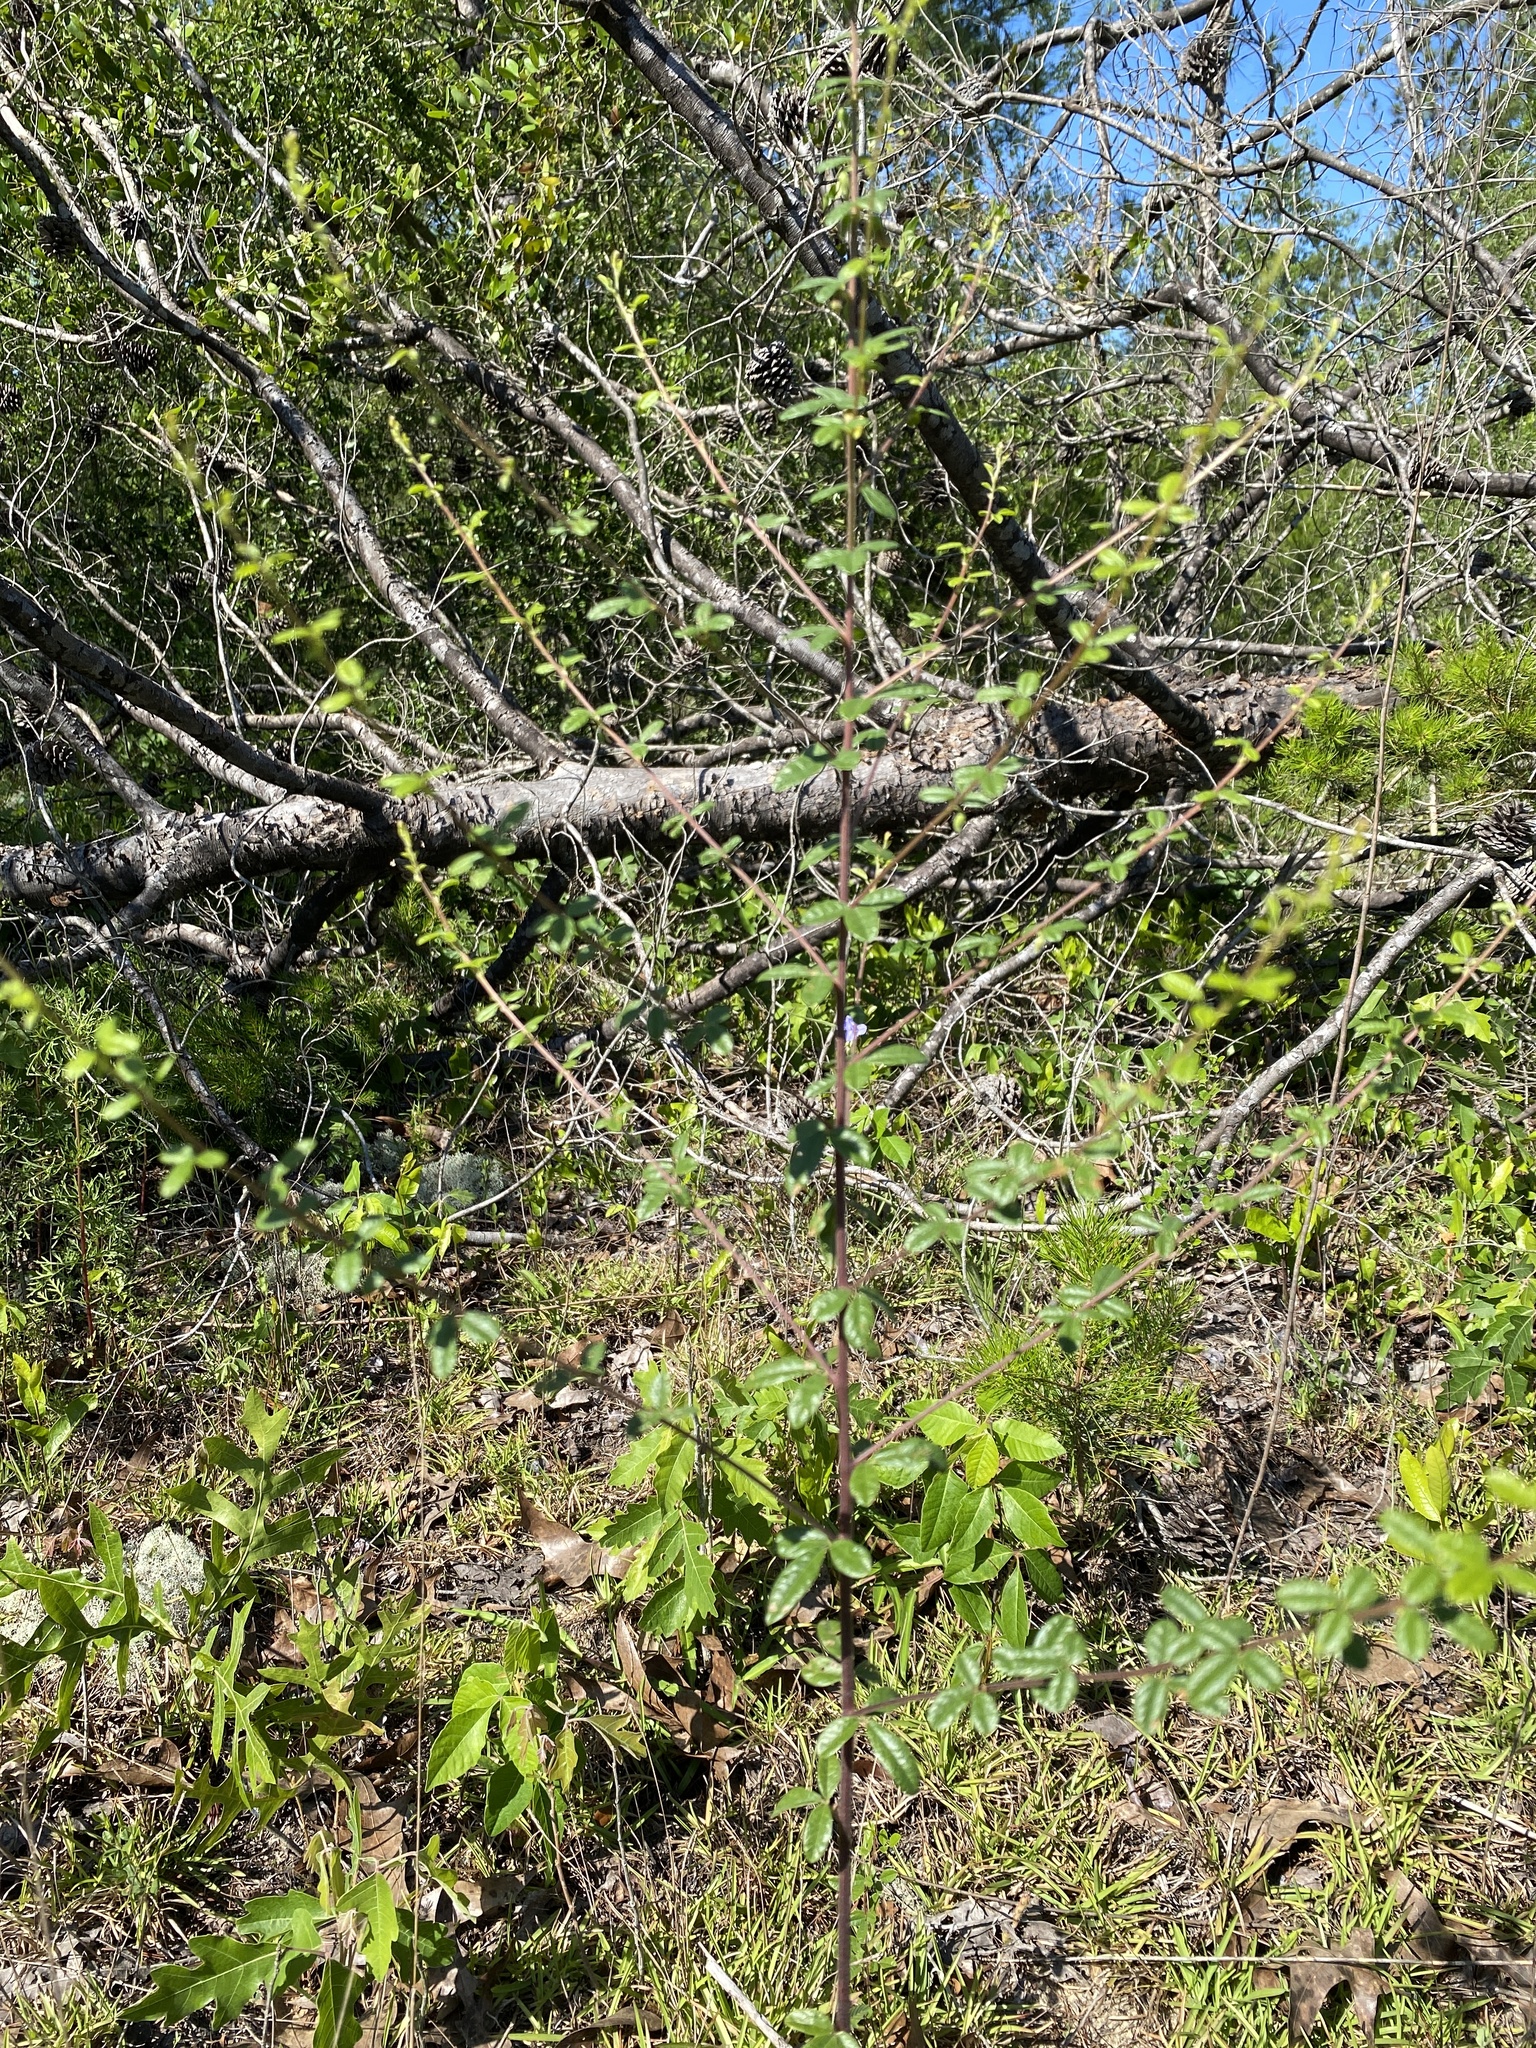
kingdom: Plantae
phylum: Tracheophyta
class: Magnoliopsida
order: Fabales
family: Fabaceae
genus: Rhynchosia
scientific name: Rhynchosia cytisoides
